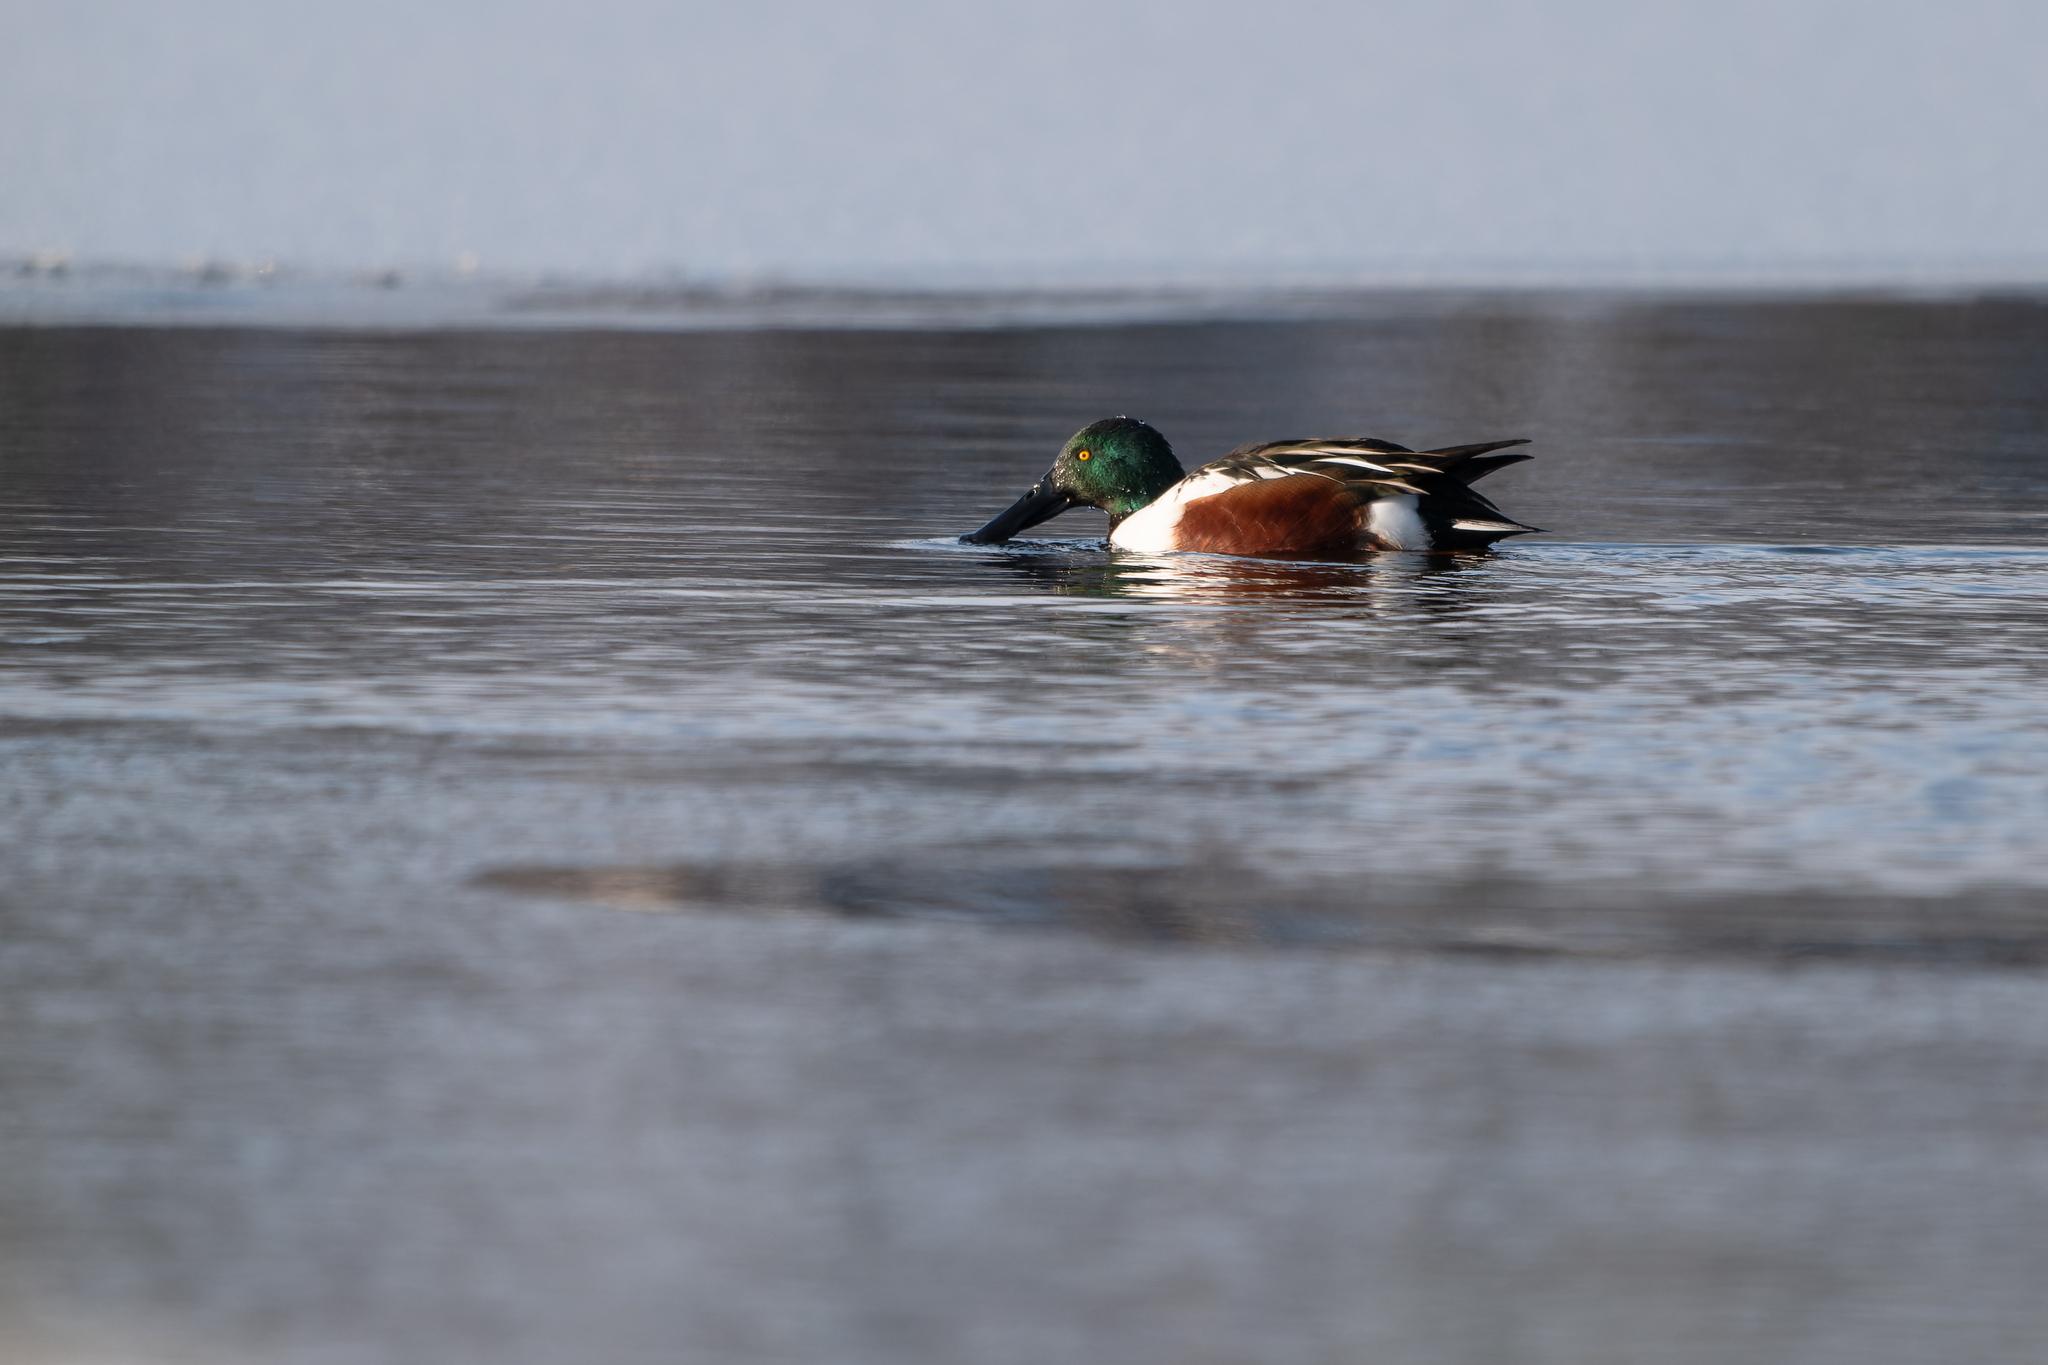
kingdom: Animalia
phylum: Chordata
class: Aves
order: Anseriformes
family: Anatidae
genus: Spatula
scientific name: Spatula clypeata
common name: Northern shoveler
